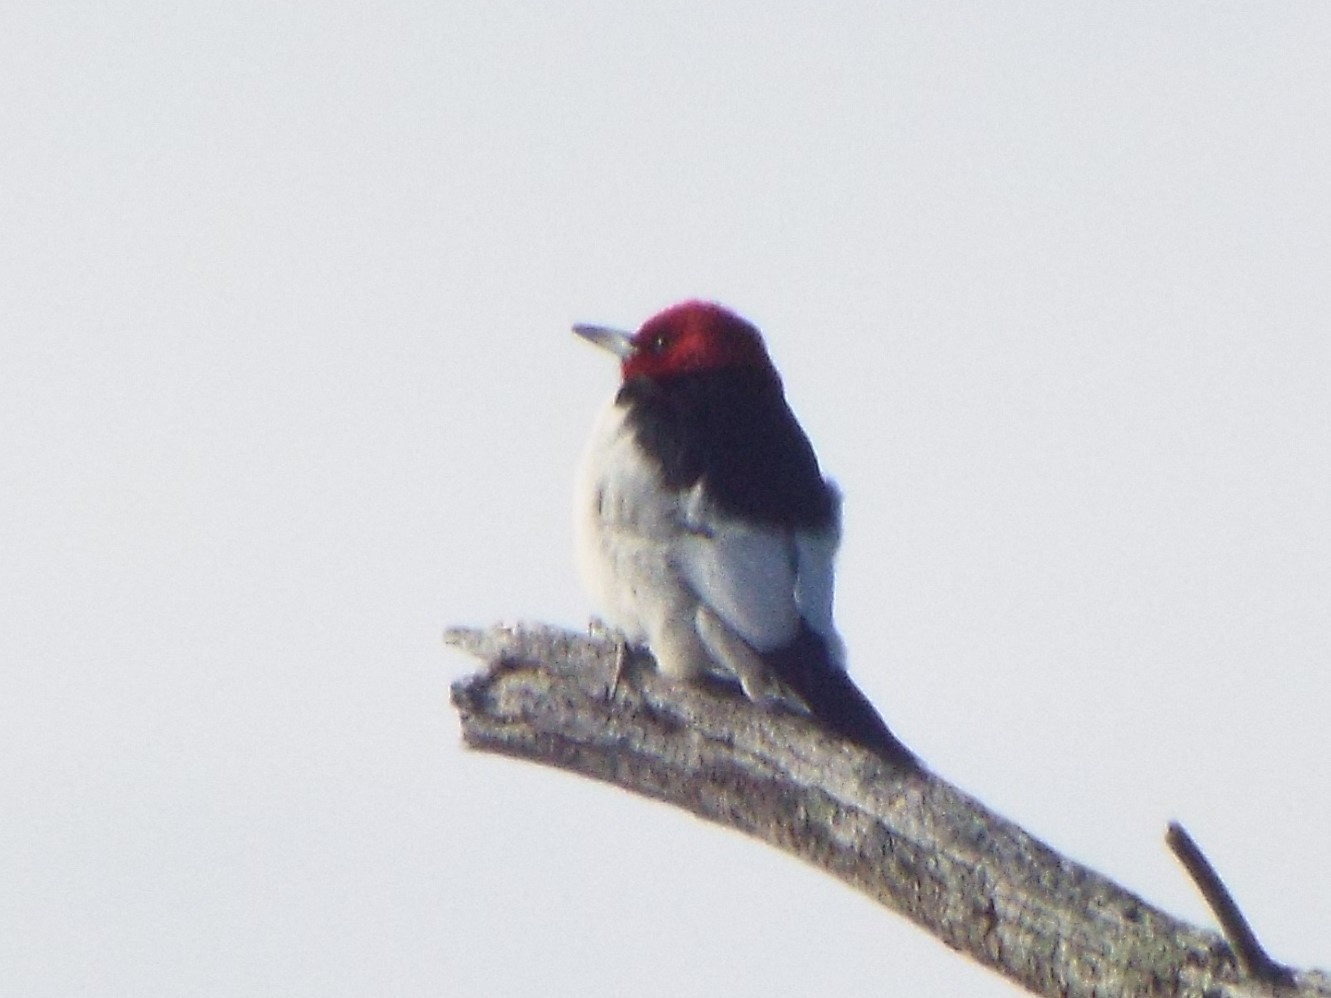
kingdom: Animalia
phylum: Chordata
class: Aves
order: Piciformes
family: Picidae
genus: Melanerpes
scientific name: Melanerpes erythrocephalus
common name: Red-headed woodpecker
